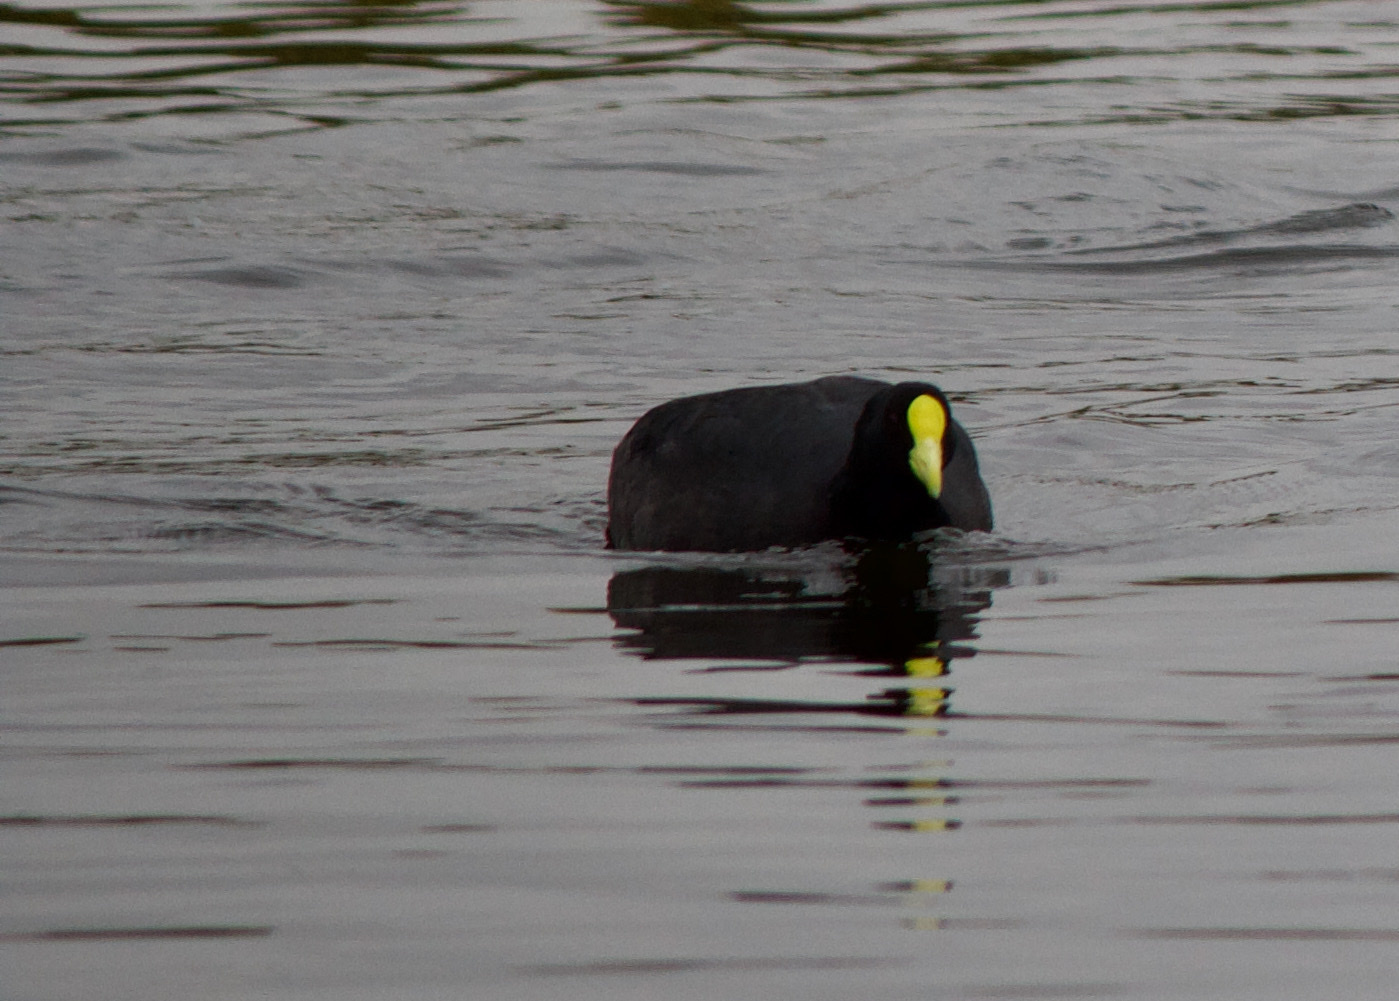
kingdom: Animalia
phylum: Chordata
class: Aves
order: Gruiformes
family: Rallidae
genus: Fulica
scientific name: Fulica leucoptera
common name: White-winged coot
